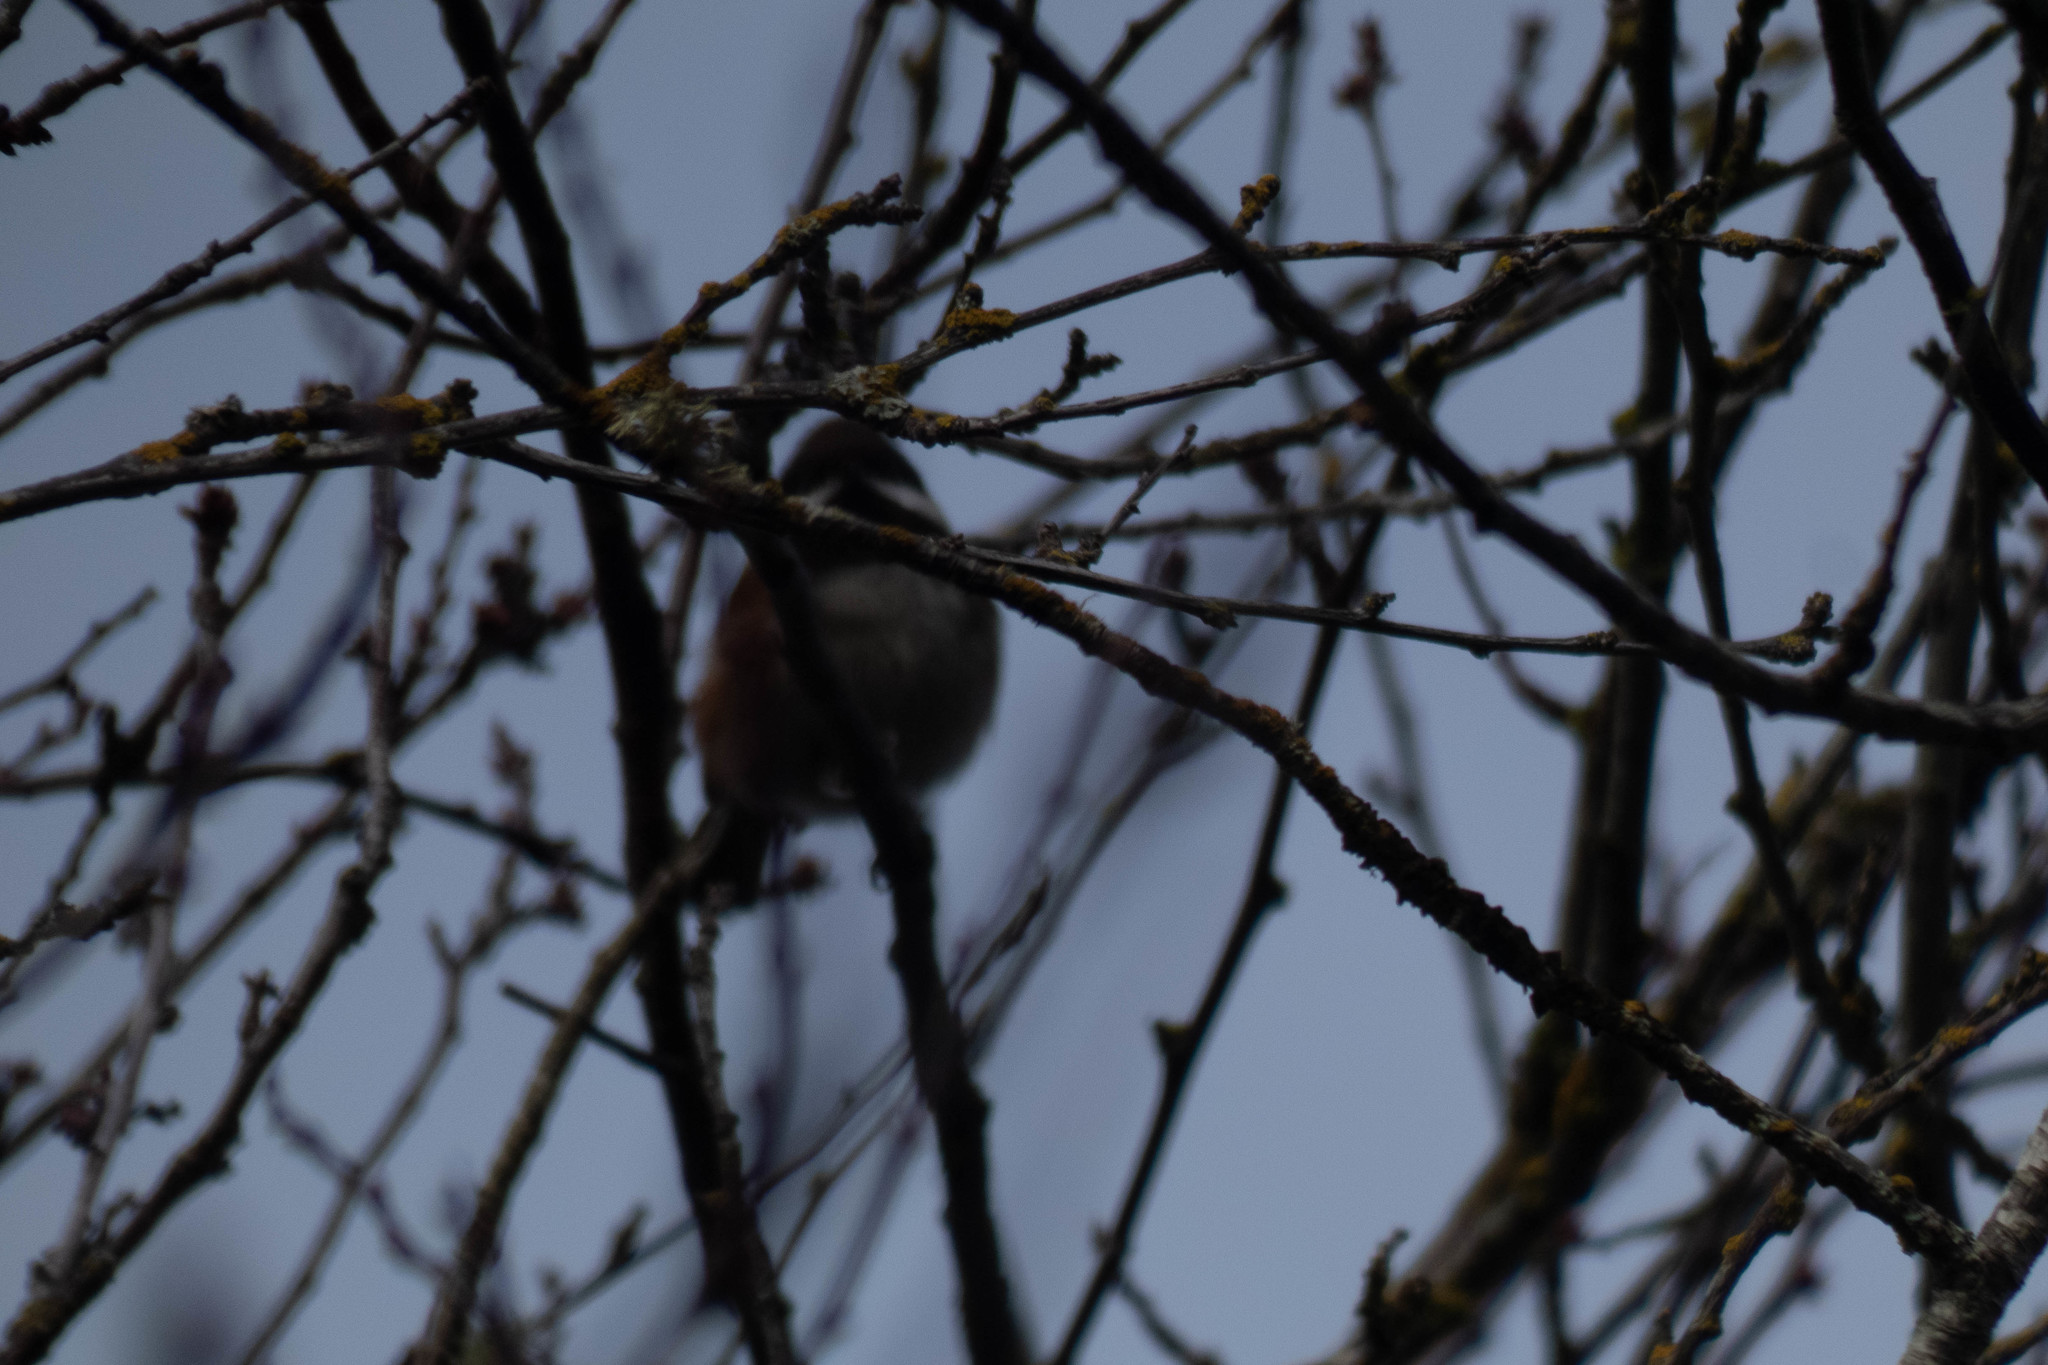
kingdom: Animalia
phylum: Chordata
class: Aves
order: Passeriformes
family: Paridae
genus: Poecile
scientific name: Poecile rufescens
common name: Chestnut-backed chickadee
